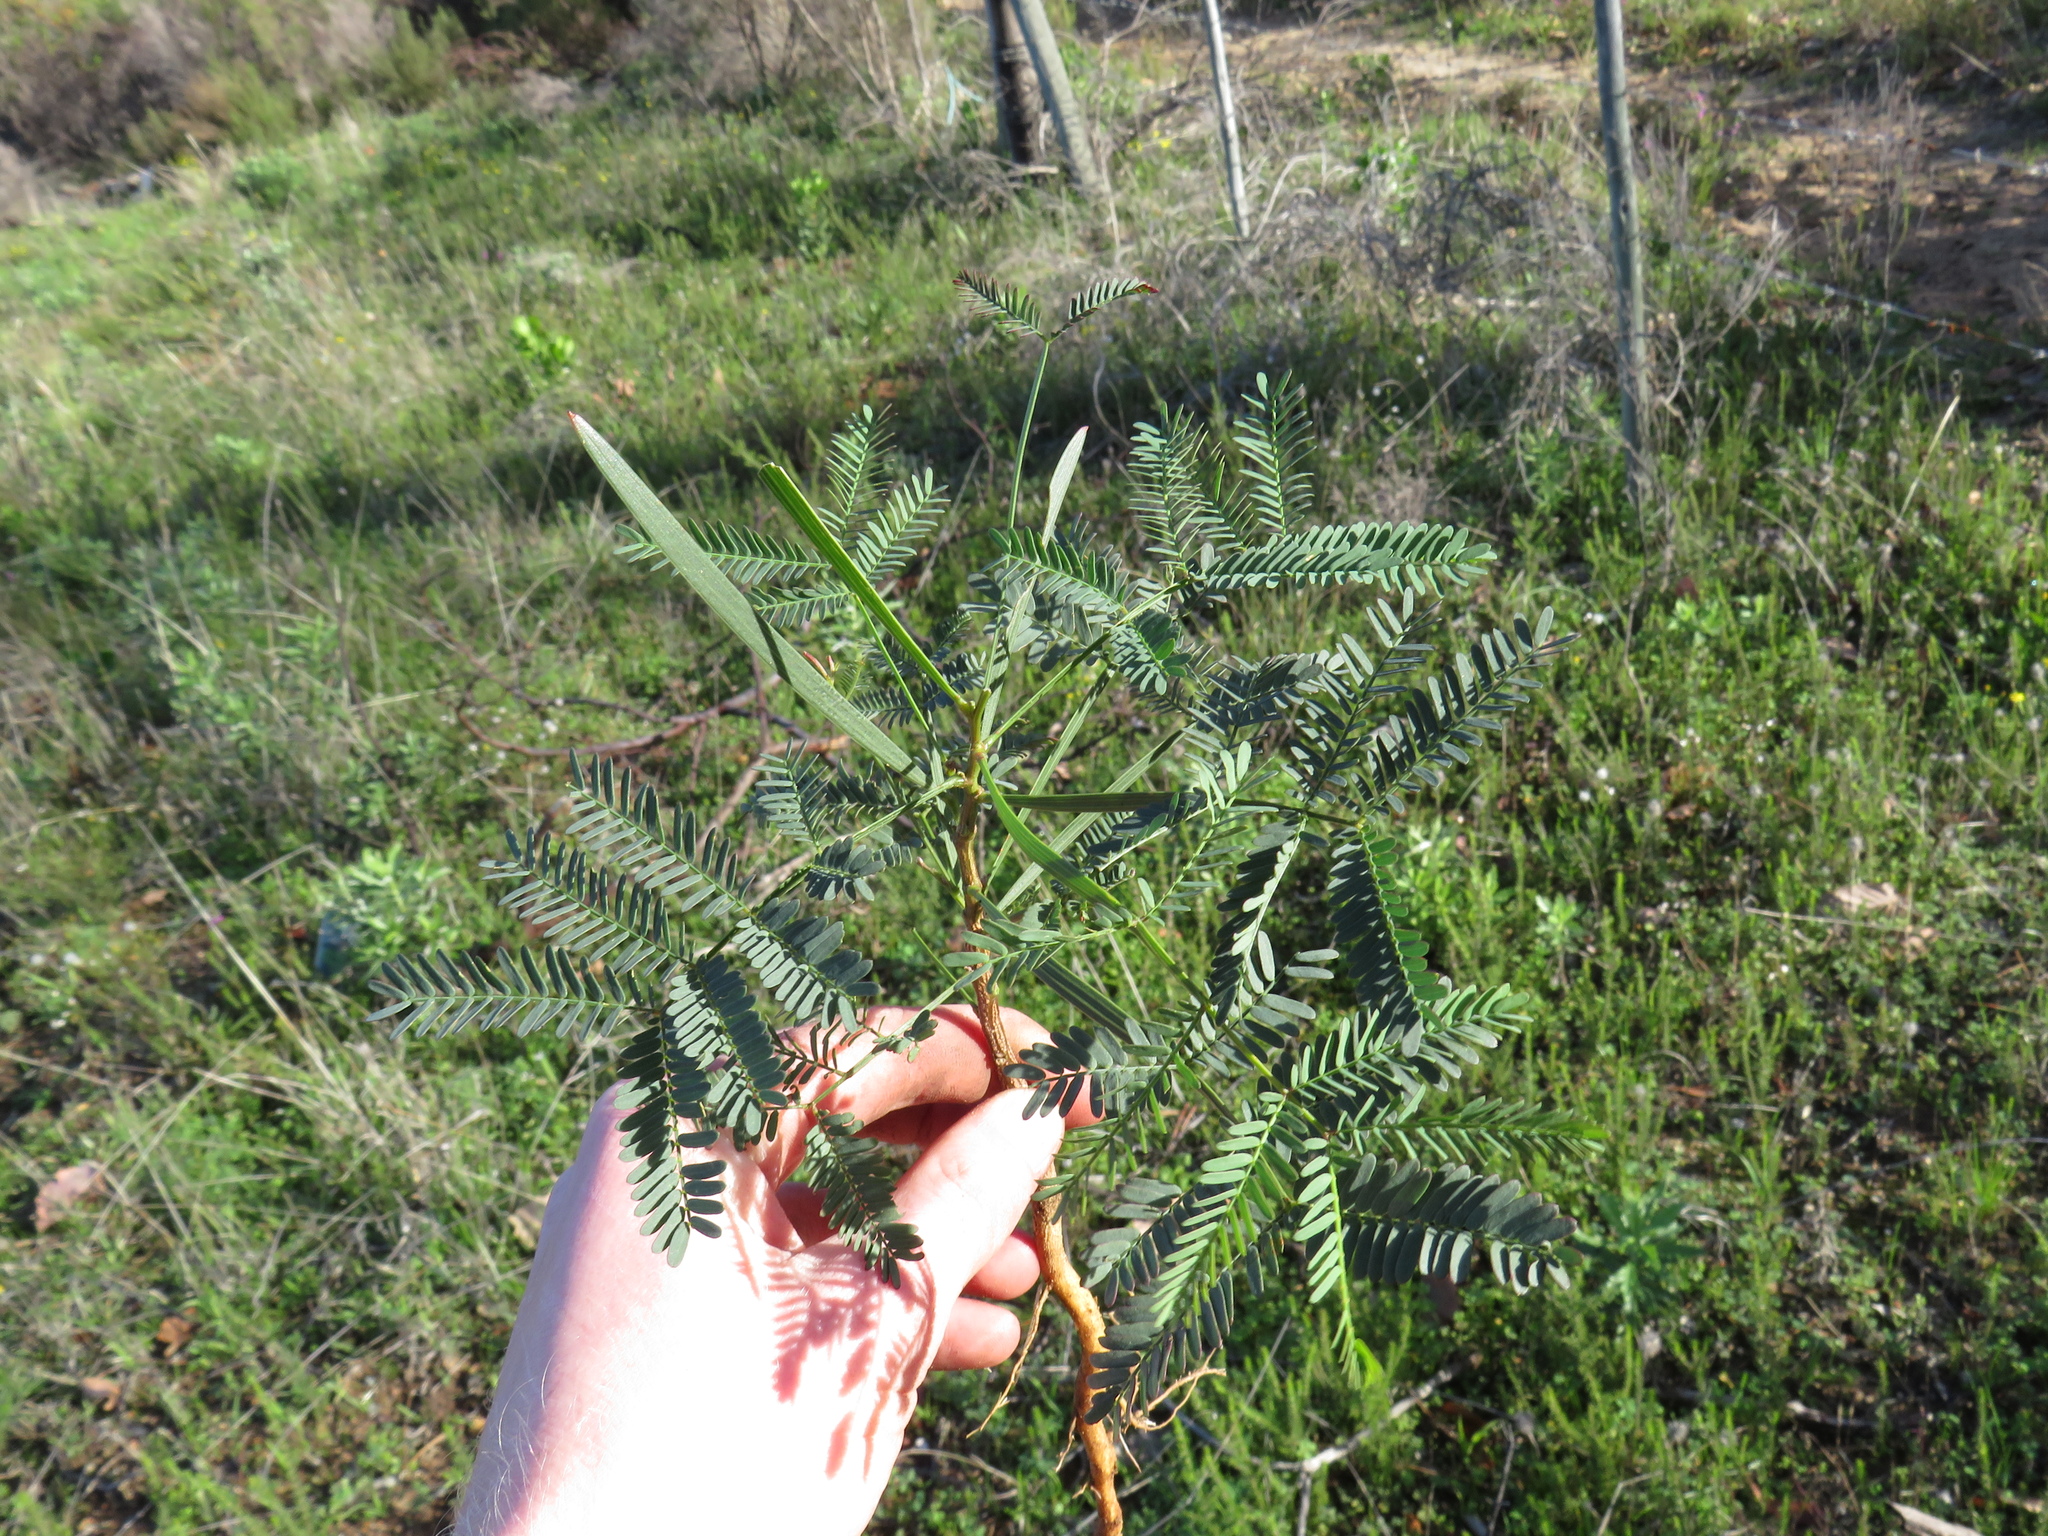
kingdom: Plantae
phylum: Tracheophyta
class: Magnoliopsida
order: Fabales
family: Fabaceae
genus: Acacia
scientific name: Acacia implexa
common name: Black wattle
